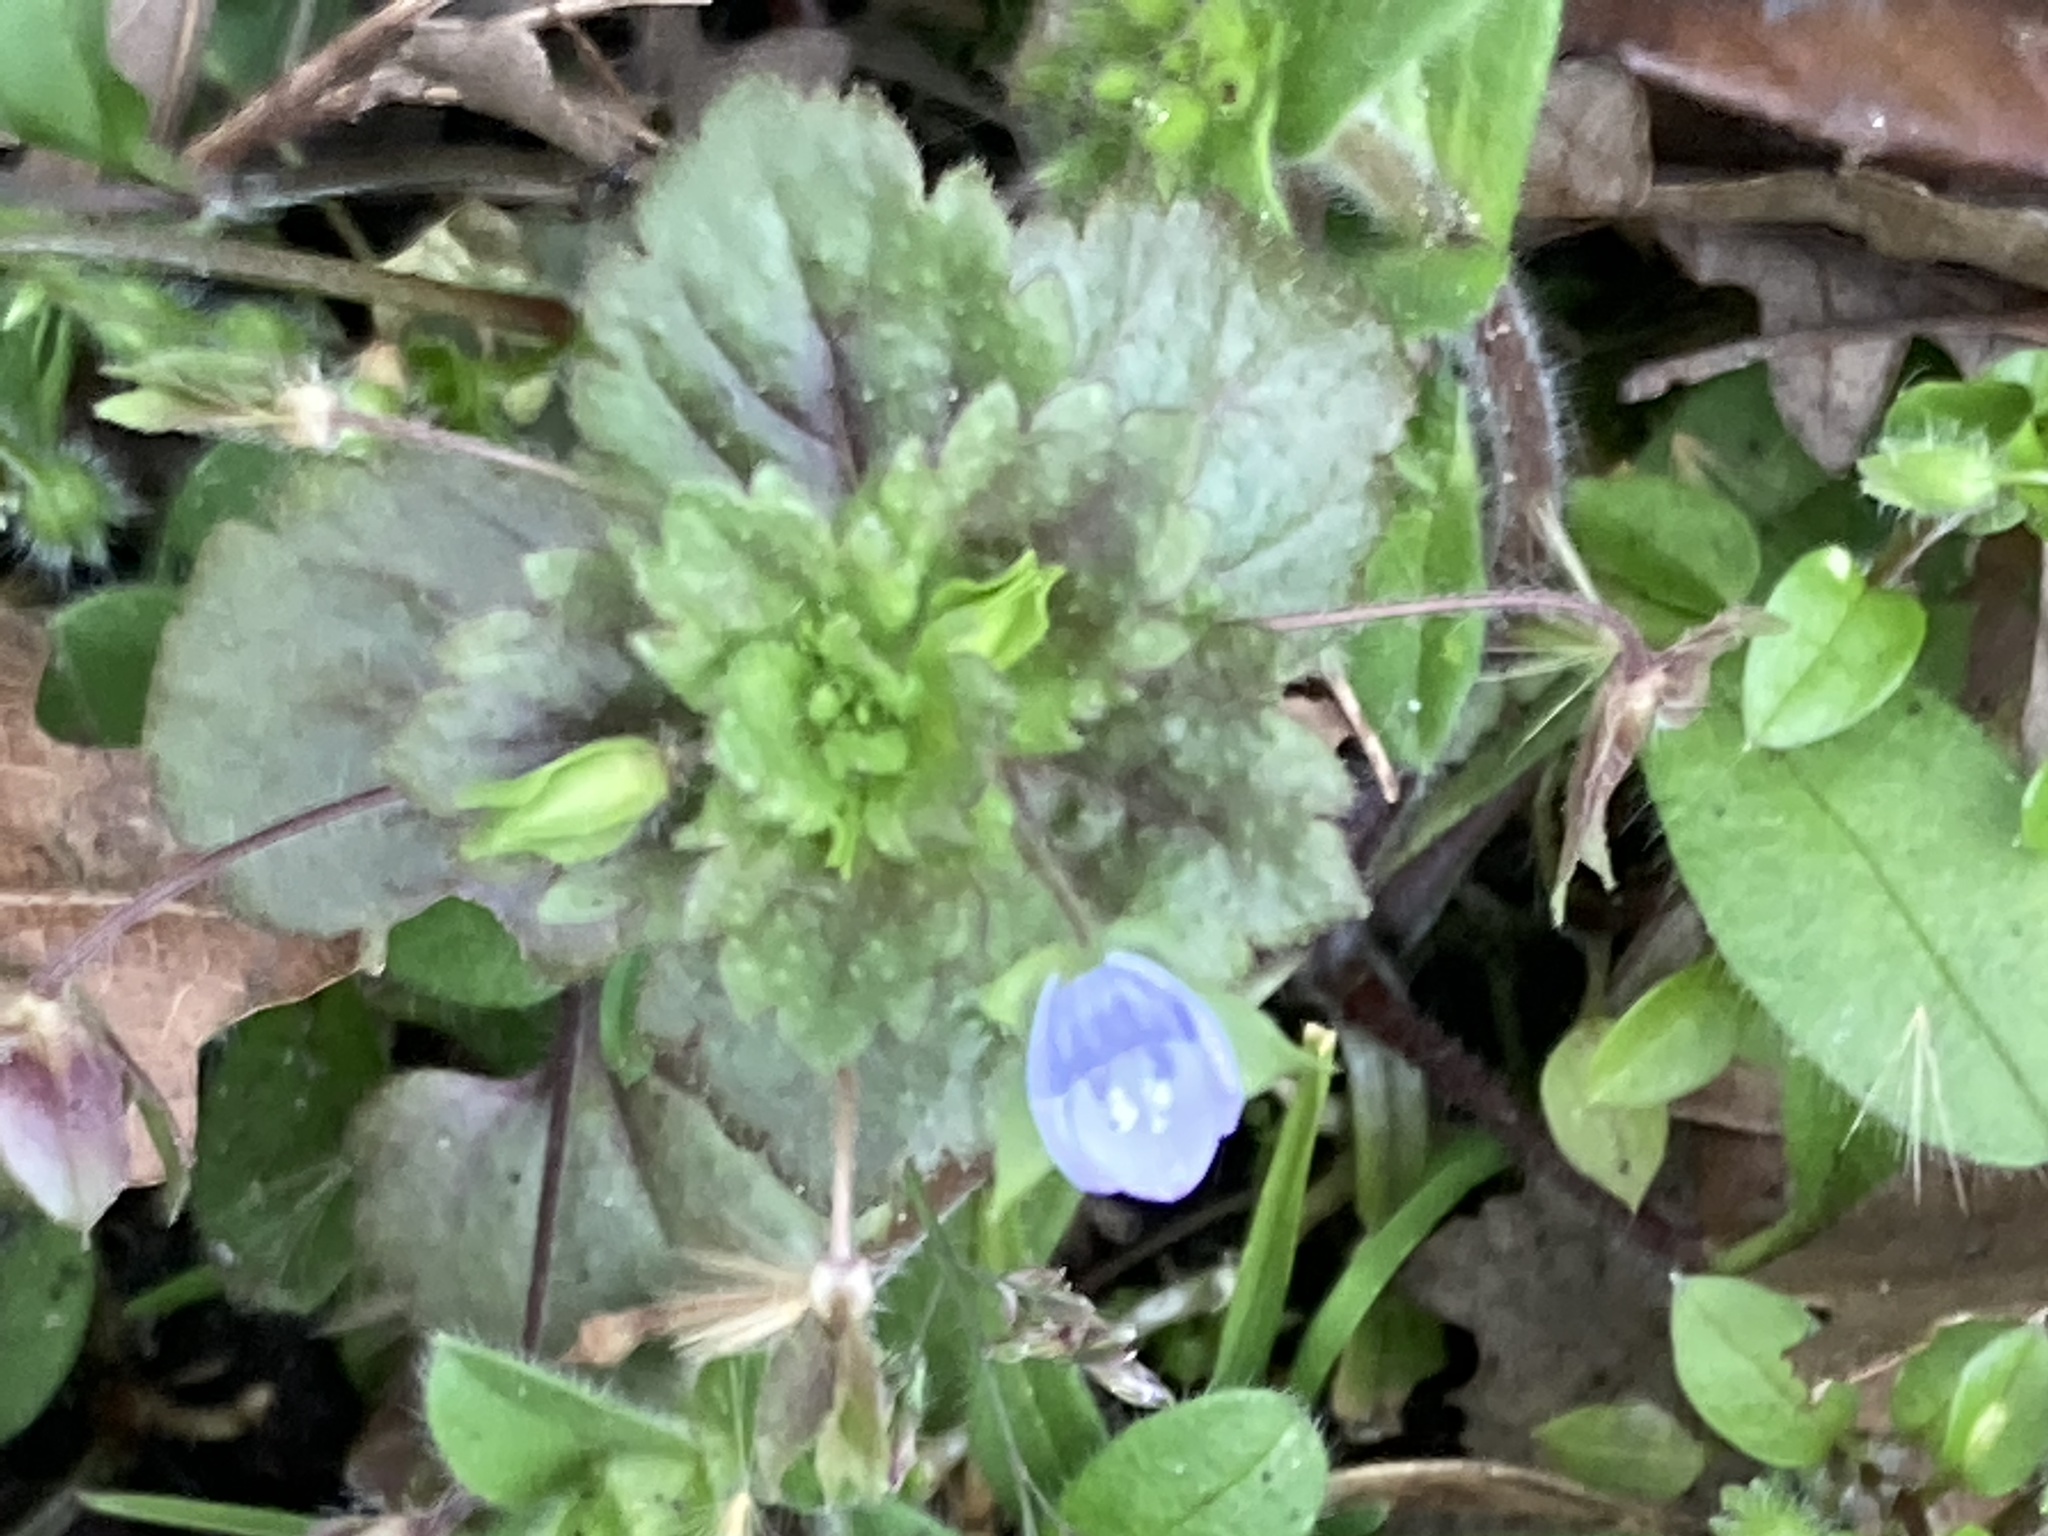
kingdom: Plantae
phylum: Tracheophyta
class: Magnoliopsida
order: Lamiales
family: Plantaginaceae
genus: Veronica
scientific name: Veronica persica
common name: Common field-speedwell
